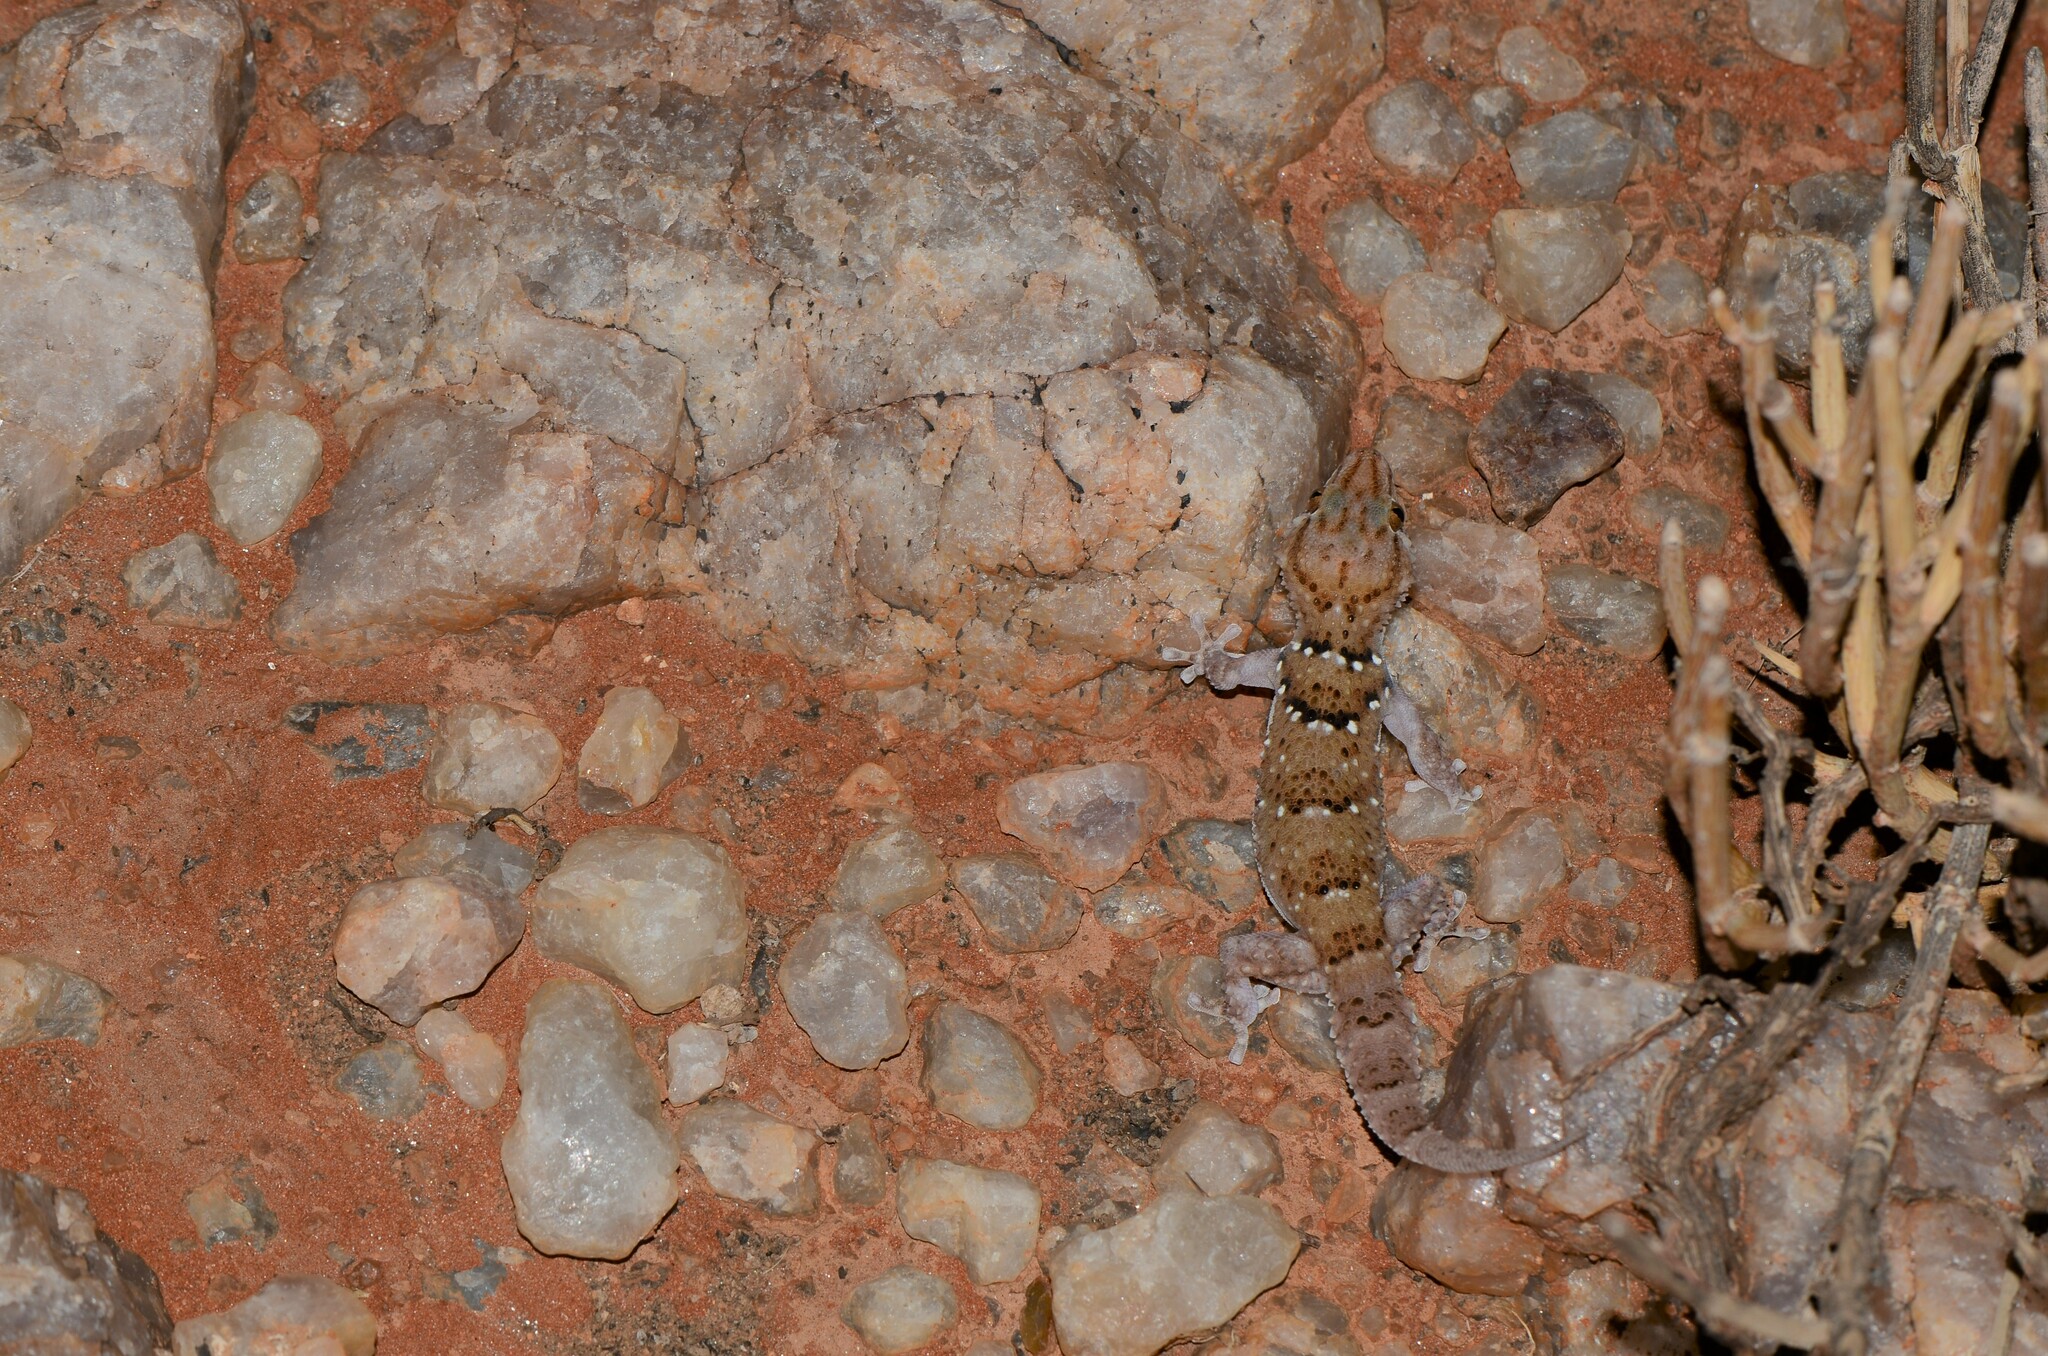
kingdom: Animalia
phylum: Chordata
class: Squamata
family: Gekkonidae
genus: Chondrodactylus
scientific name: Chondrodactylus laevigatus
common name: Fischer's thick-toed gecko
